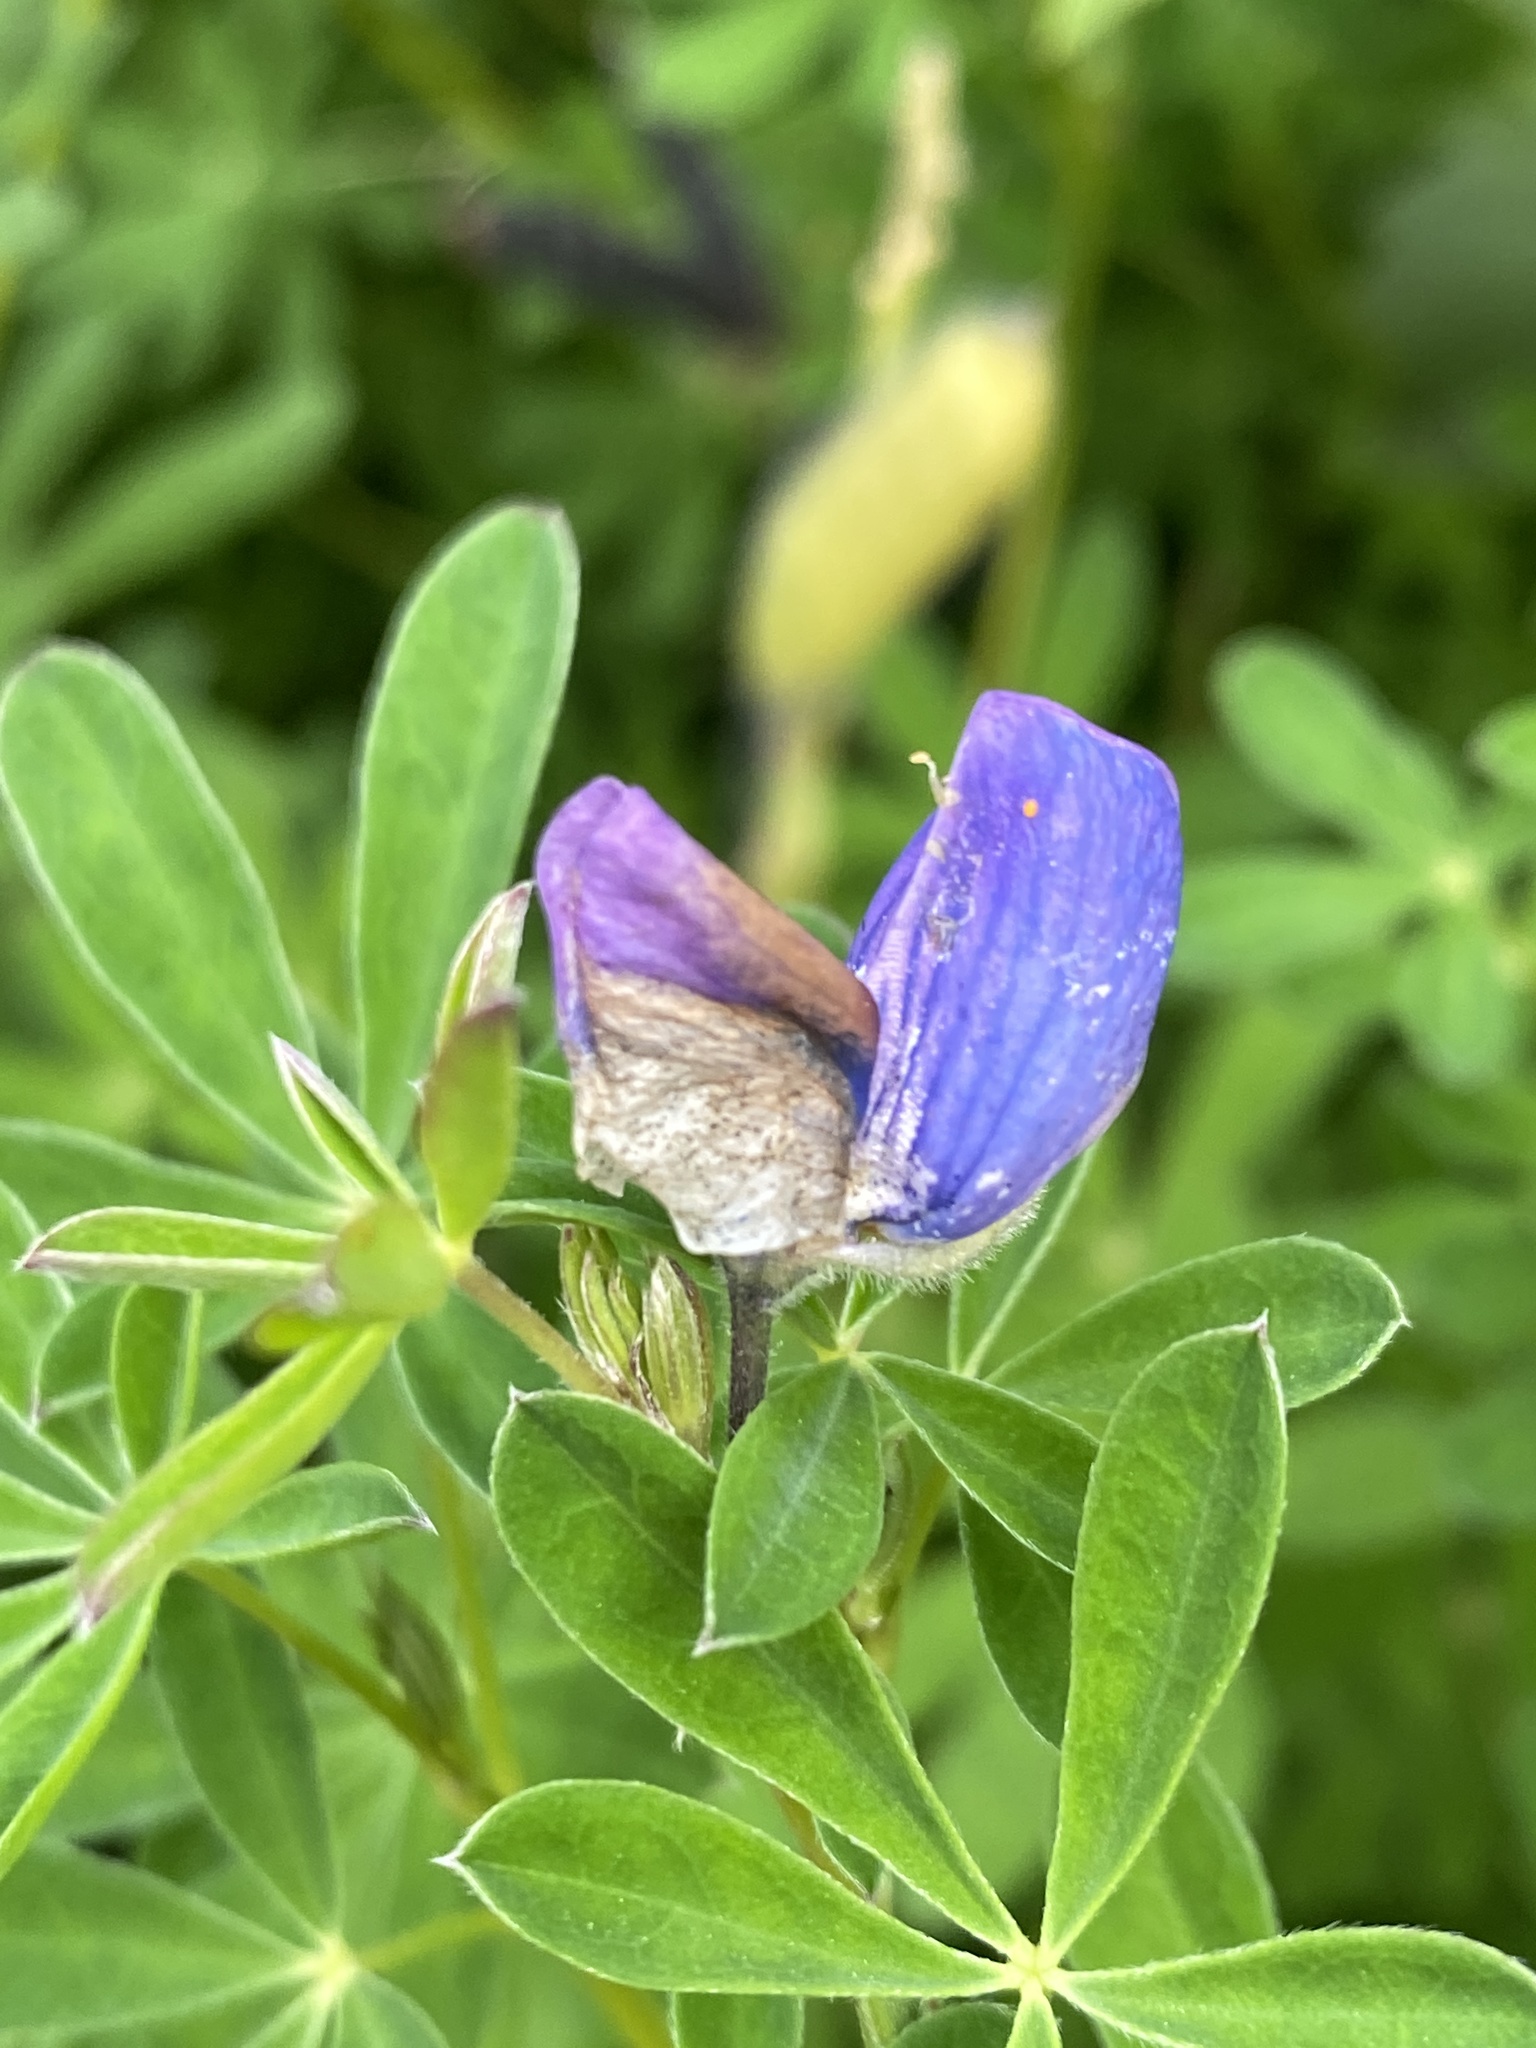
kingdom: Plantae
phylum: Tracheophyta
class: Magnoliopsida
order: Fabales
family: Fabaceae
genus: Lupinus
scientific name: Lupinus nootkatensis
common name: Nootka lupine
